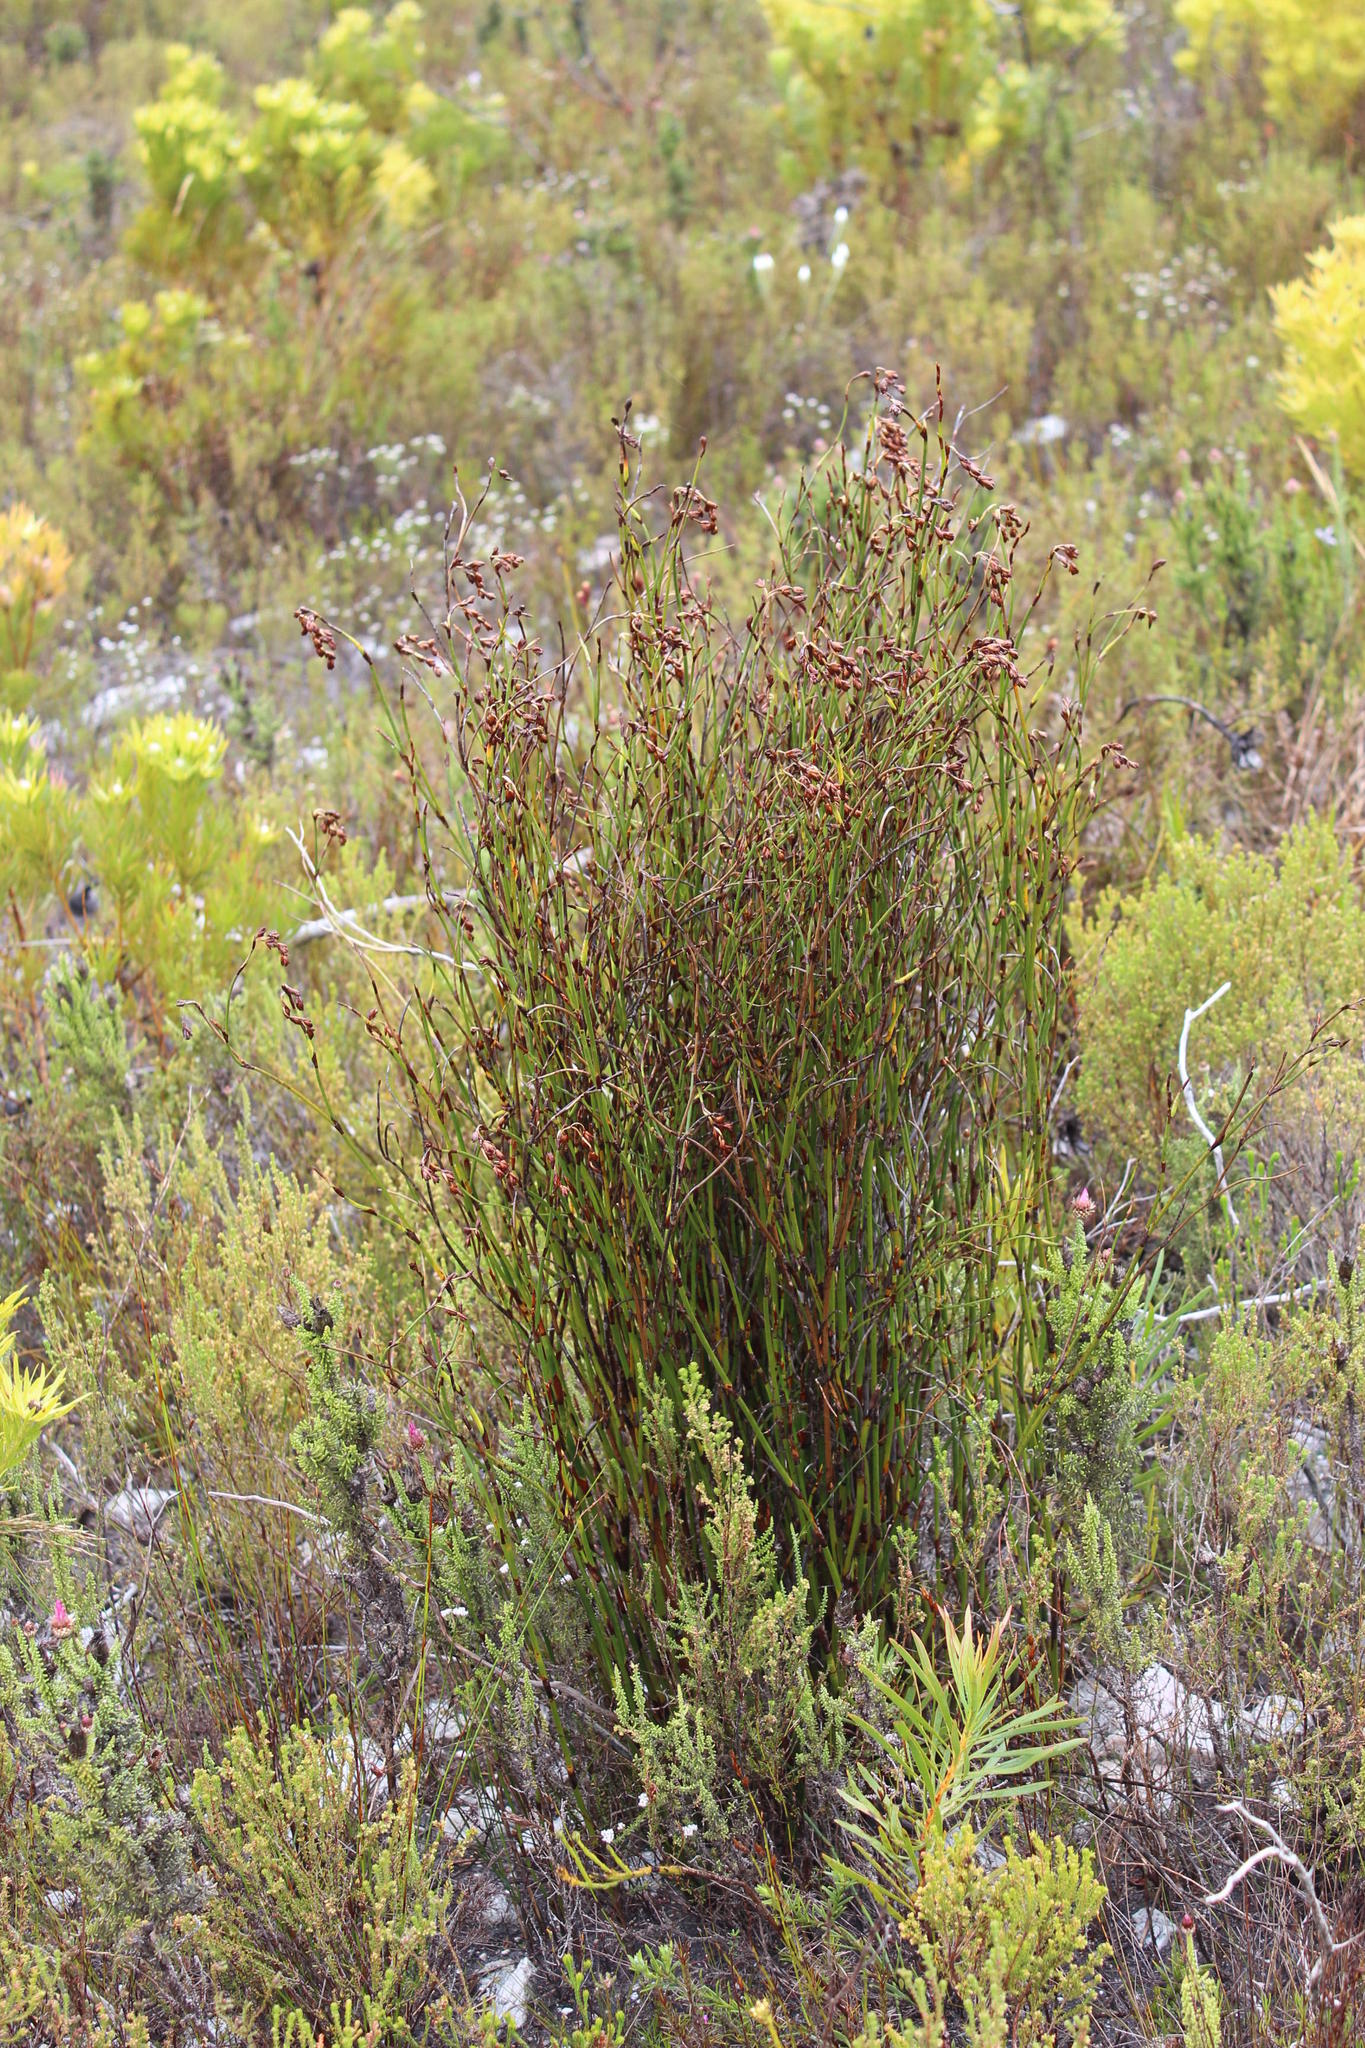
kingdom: Plantae
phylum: Tracheophyta
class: Liliopsida
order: Poales
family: Restionaceae
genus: Restio
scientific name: Restio egregius
